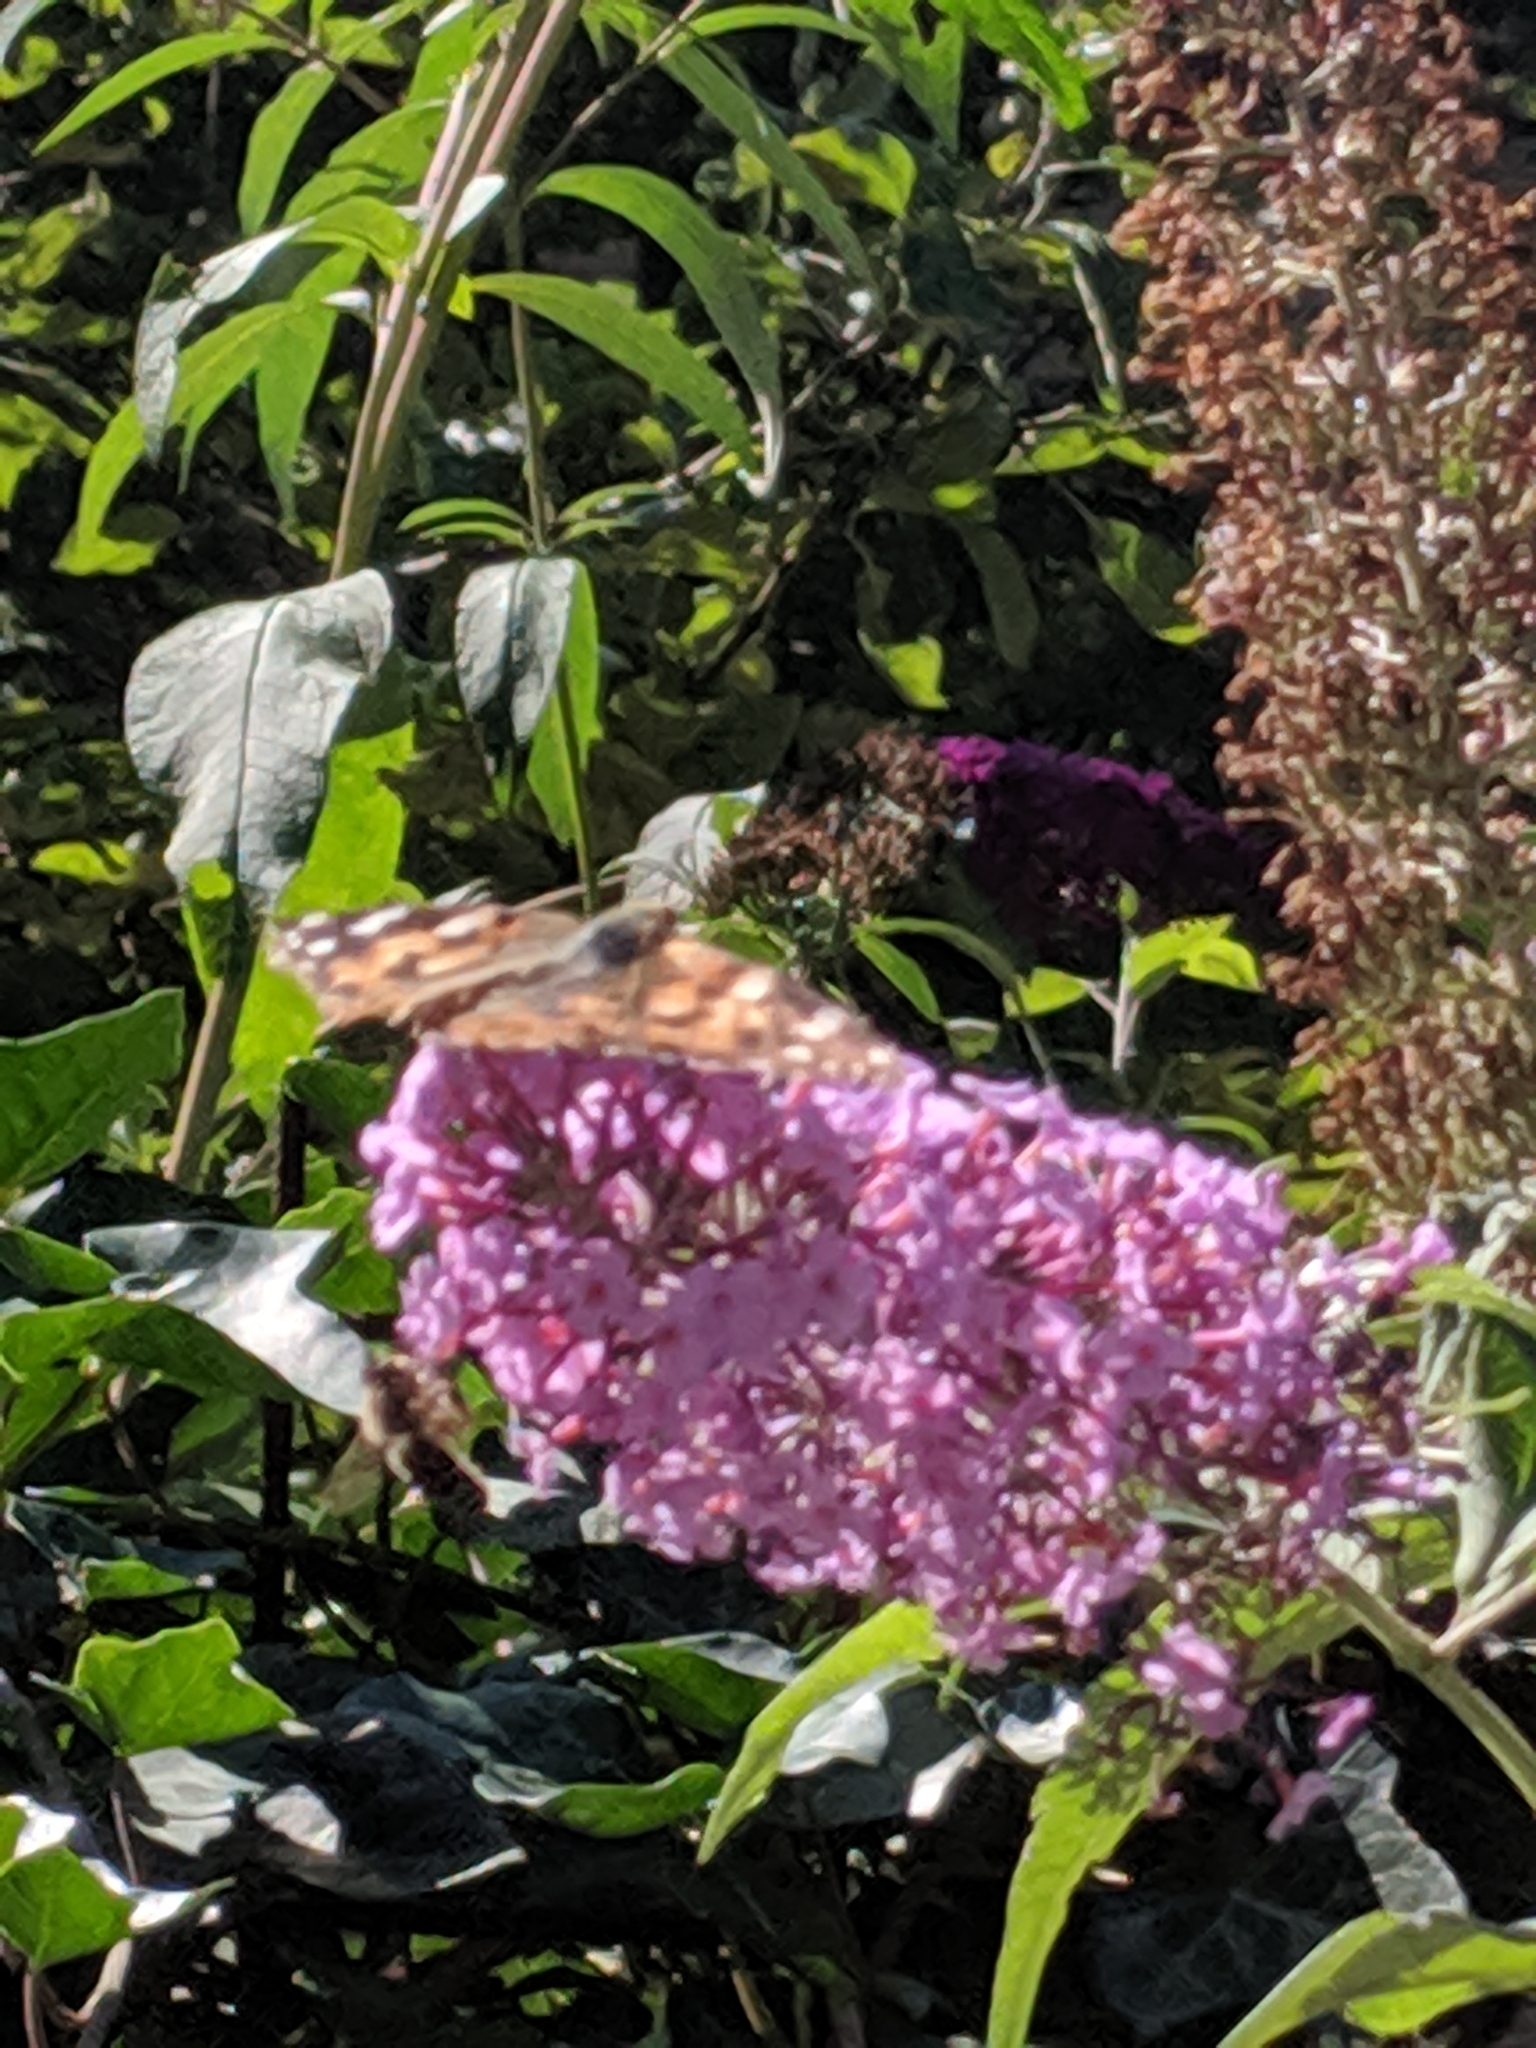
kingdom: Animalia
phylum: Arthropoda
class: Insecta
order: Lepidoptera
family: Nymphalidae
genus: Vanessa
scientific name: Vanessa cardui
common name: Painted lady
